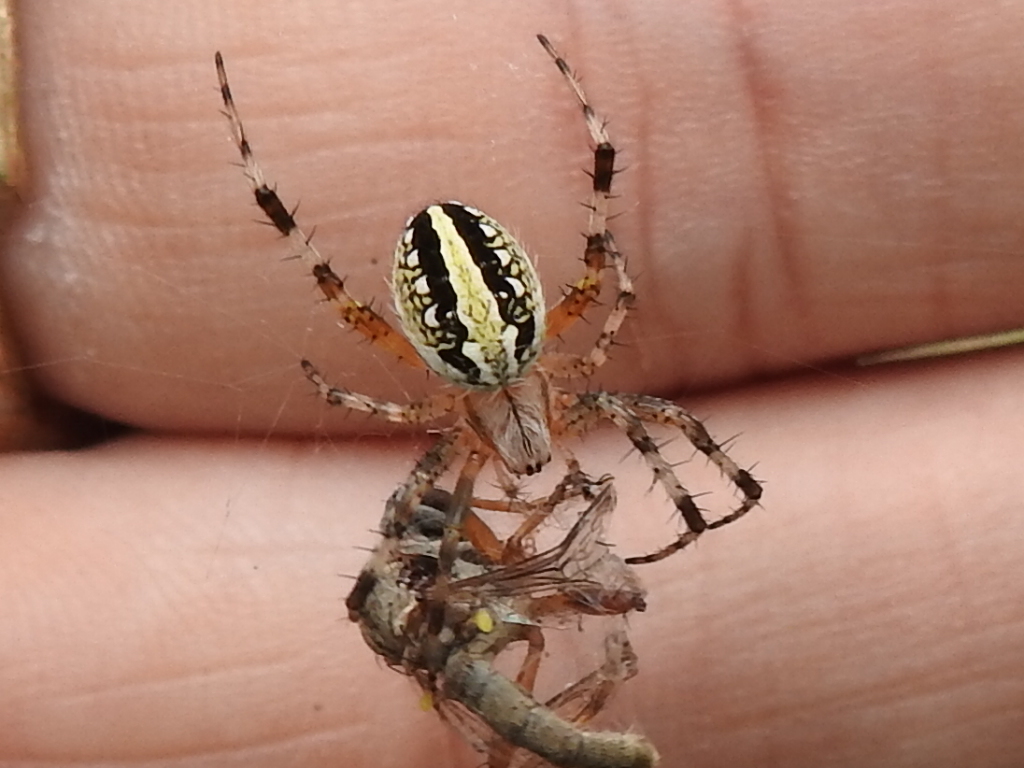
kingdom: Animalia
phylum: Arthropoda
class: Arachnida
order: Araneae
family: Araneidae
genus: Neoscona
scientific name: Neoscona oaxacensis
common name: Orb weavers
